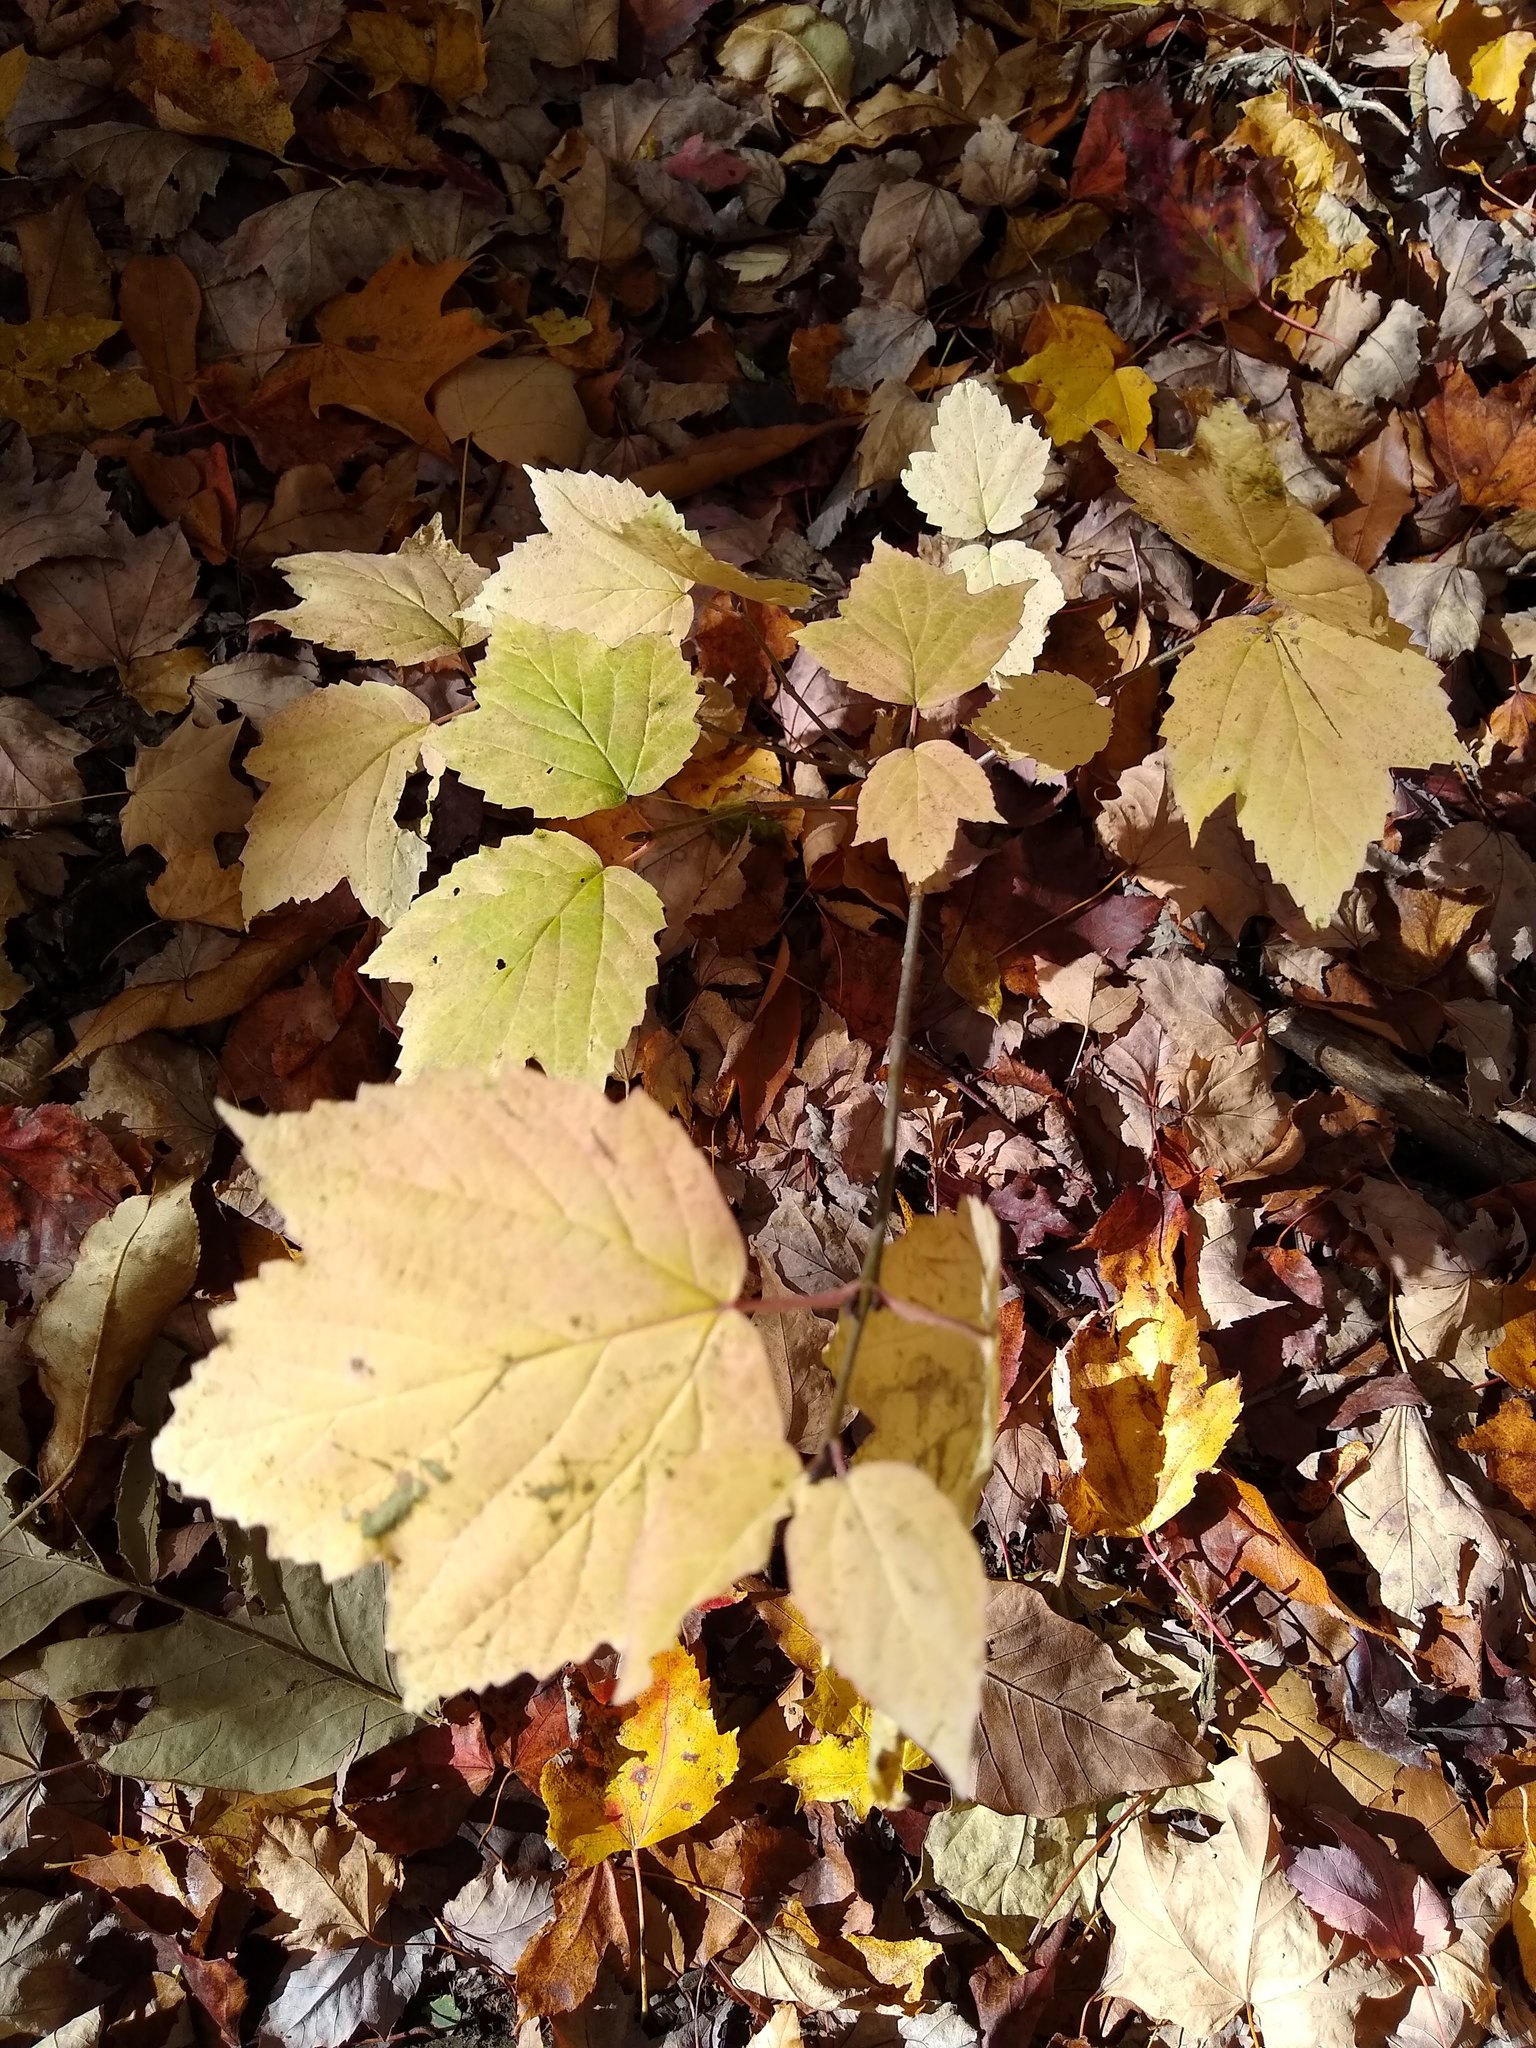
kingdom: Plantae
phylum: Tracheophyta
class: Magnoliopsida
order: Dipsacales
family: Viburnaceae
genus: Viburnum
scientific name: Viburnum acerifolium
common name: Dockmackie
